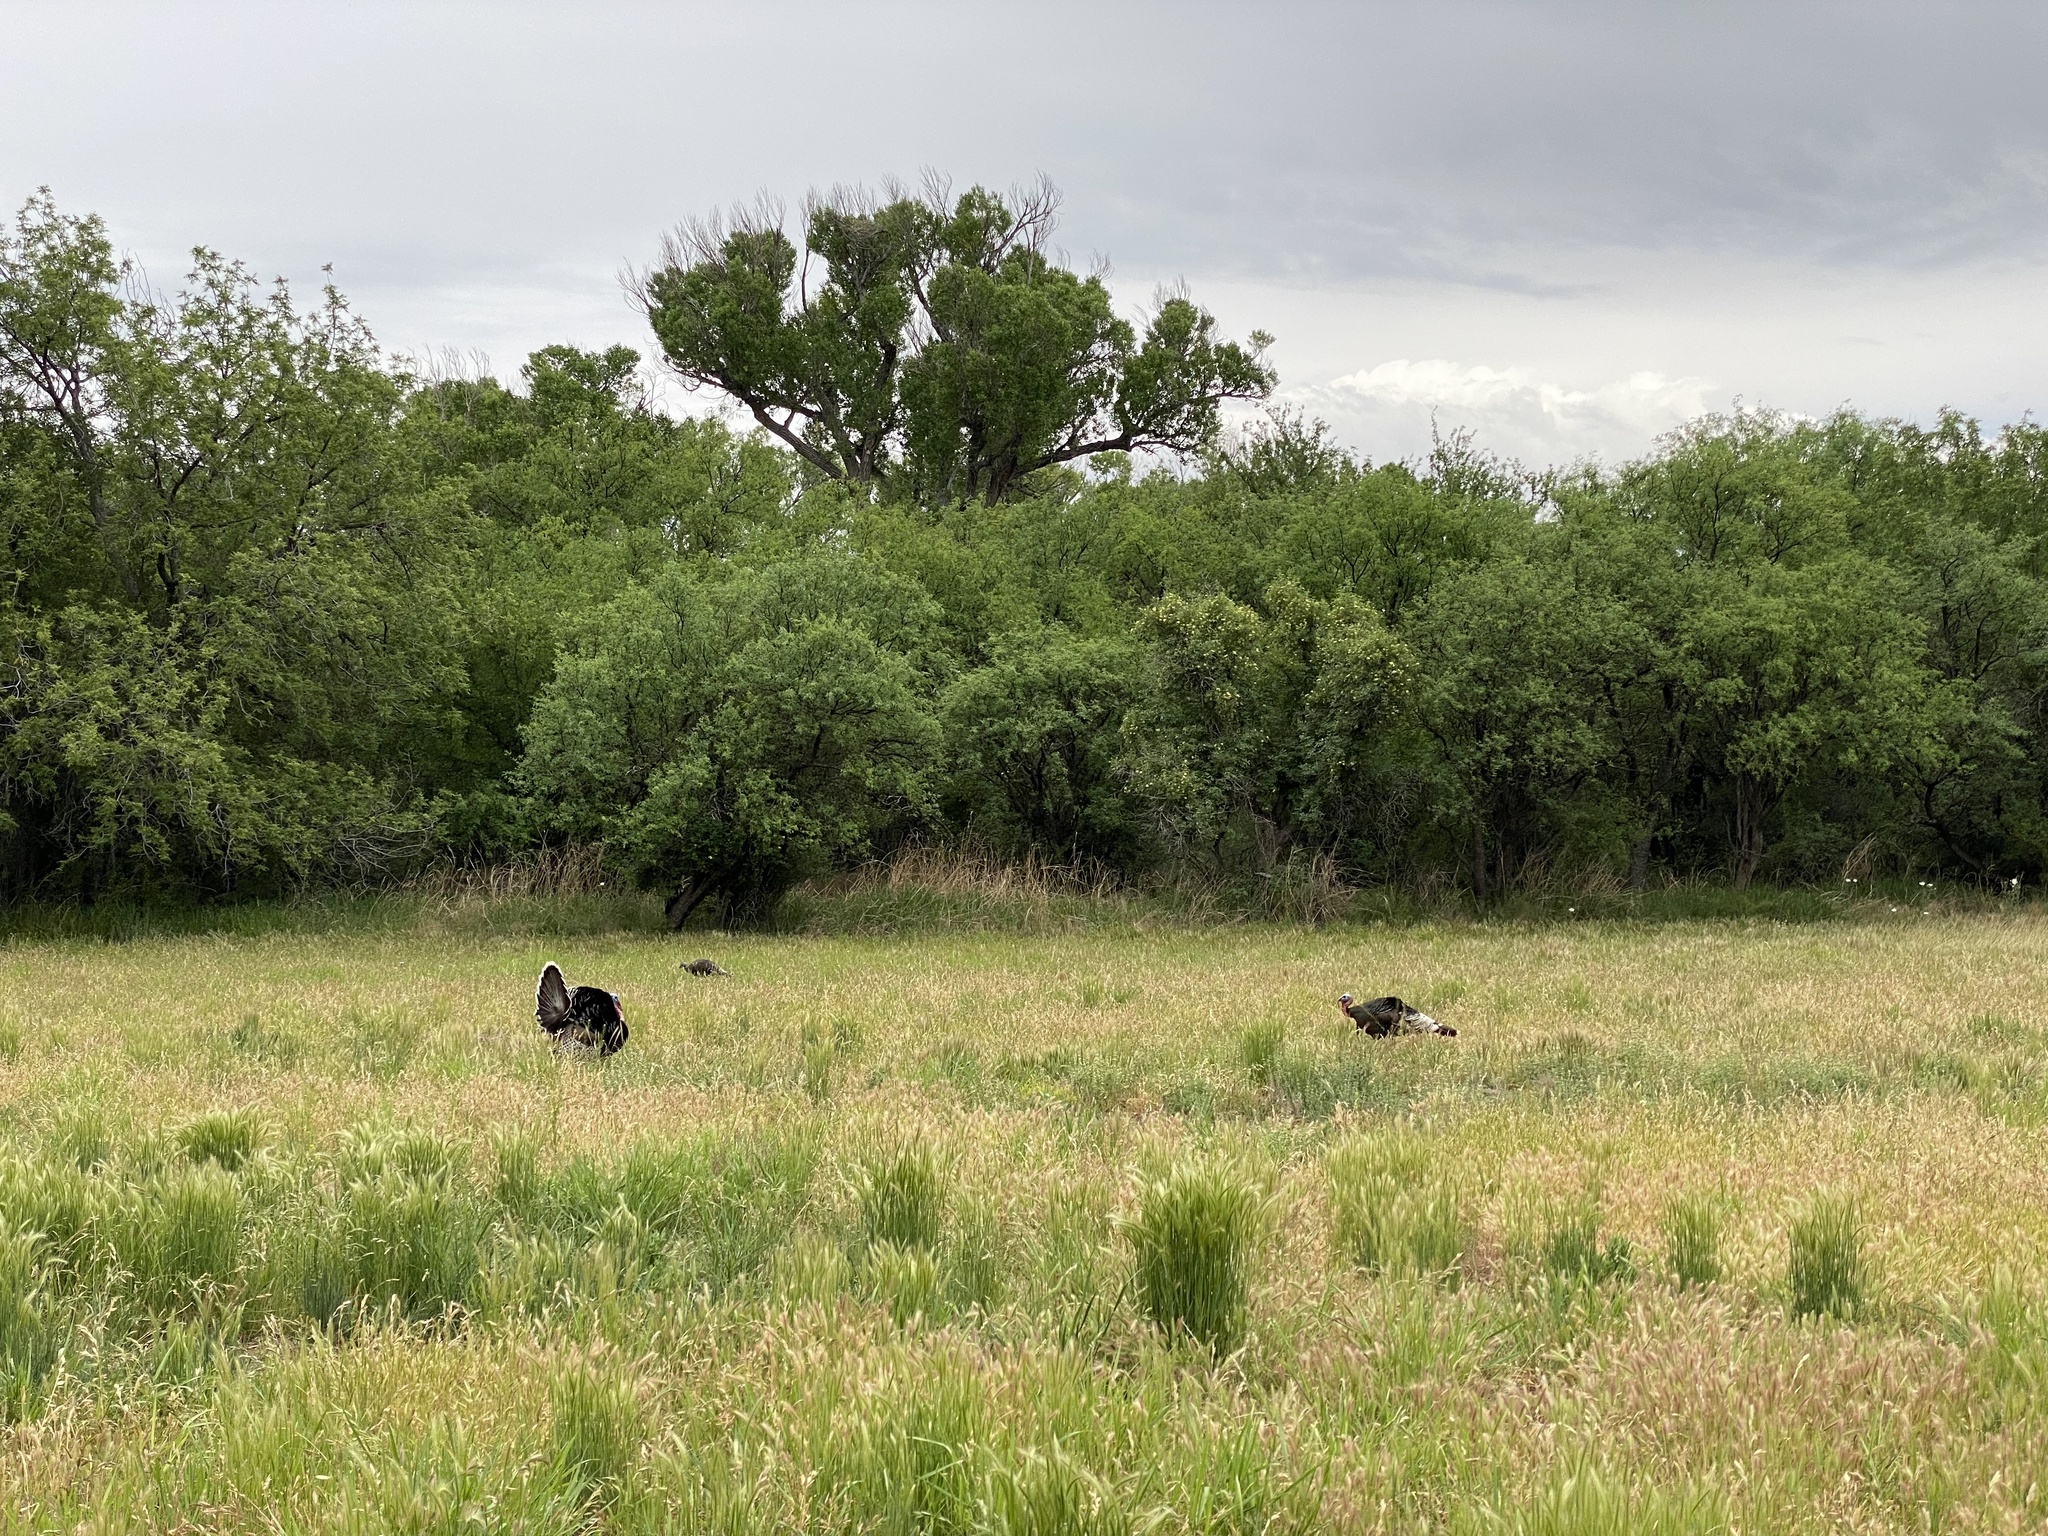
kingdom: Animalia
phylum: Chordata
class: Aves
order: Galliformes
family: Phasianidae
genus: Meleagris
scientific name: Meleagris gallopavo
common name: Wild turkey
